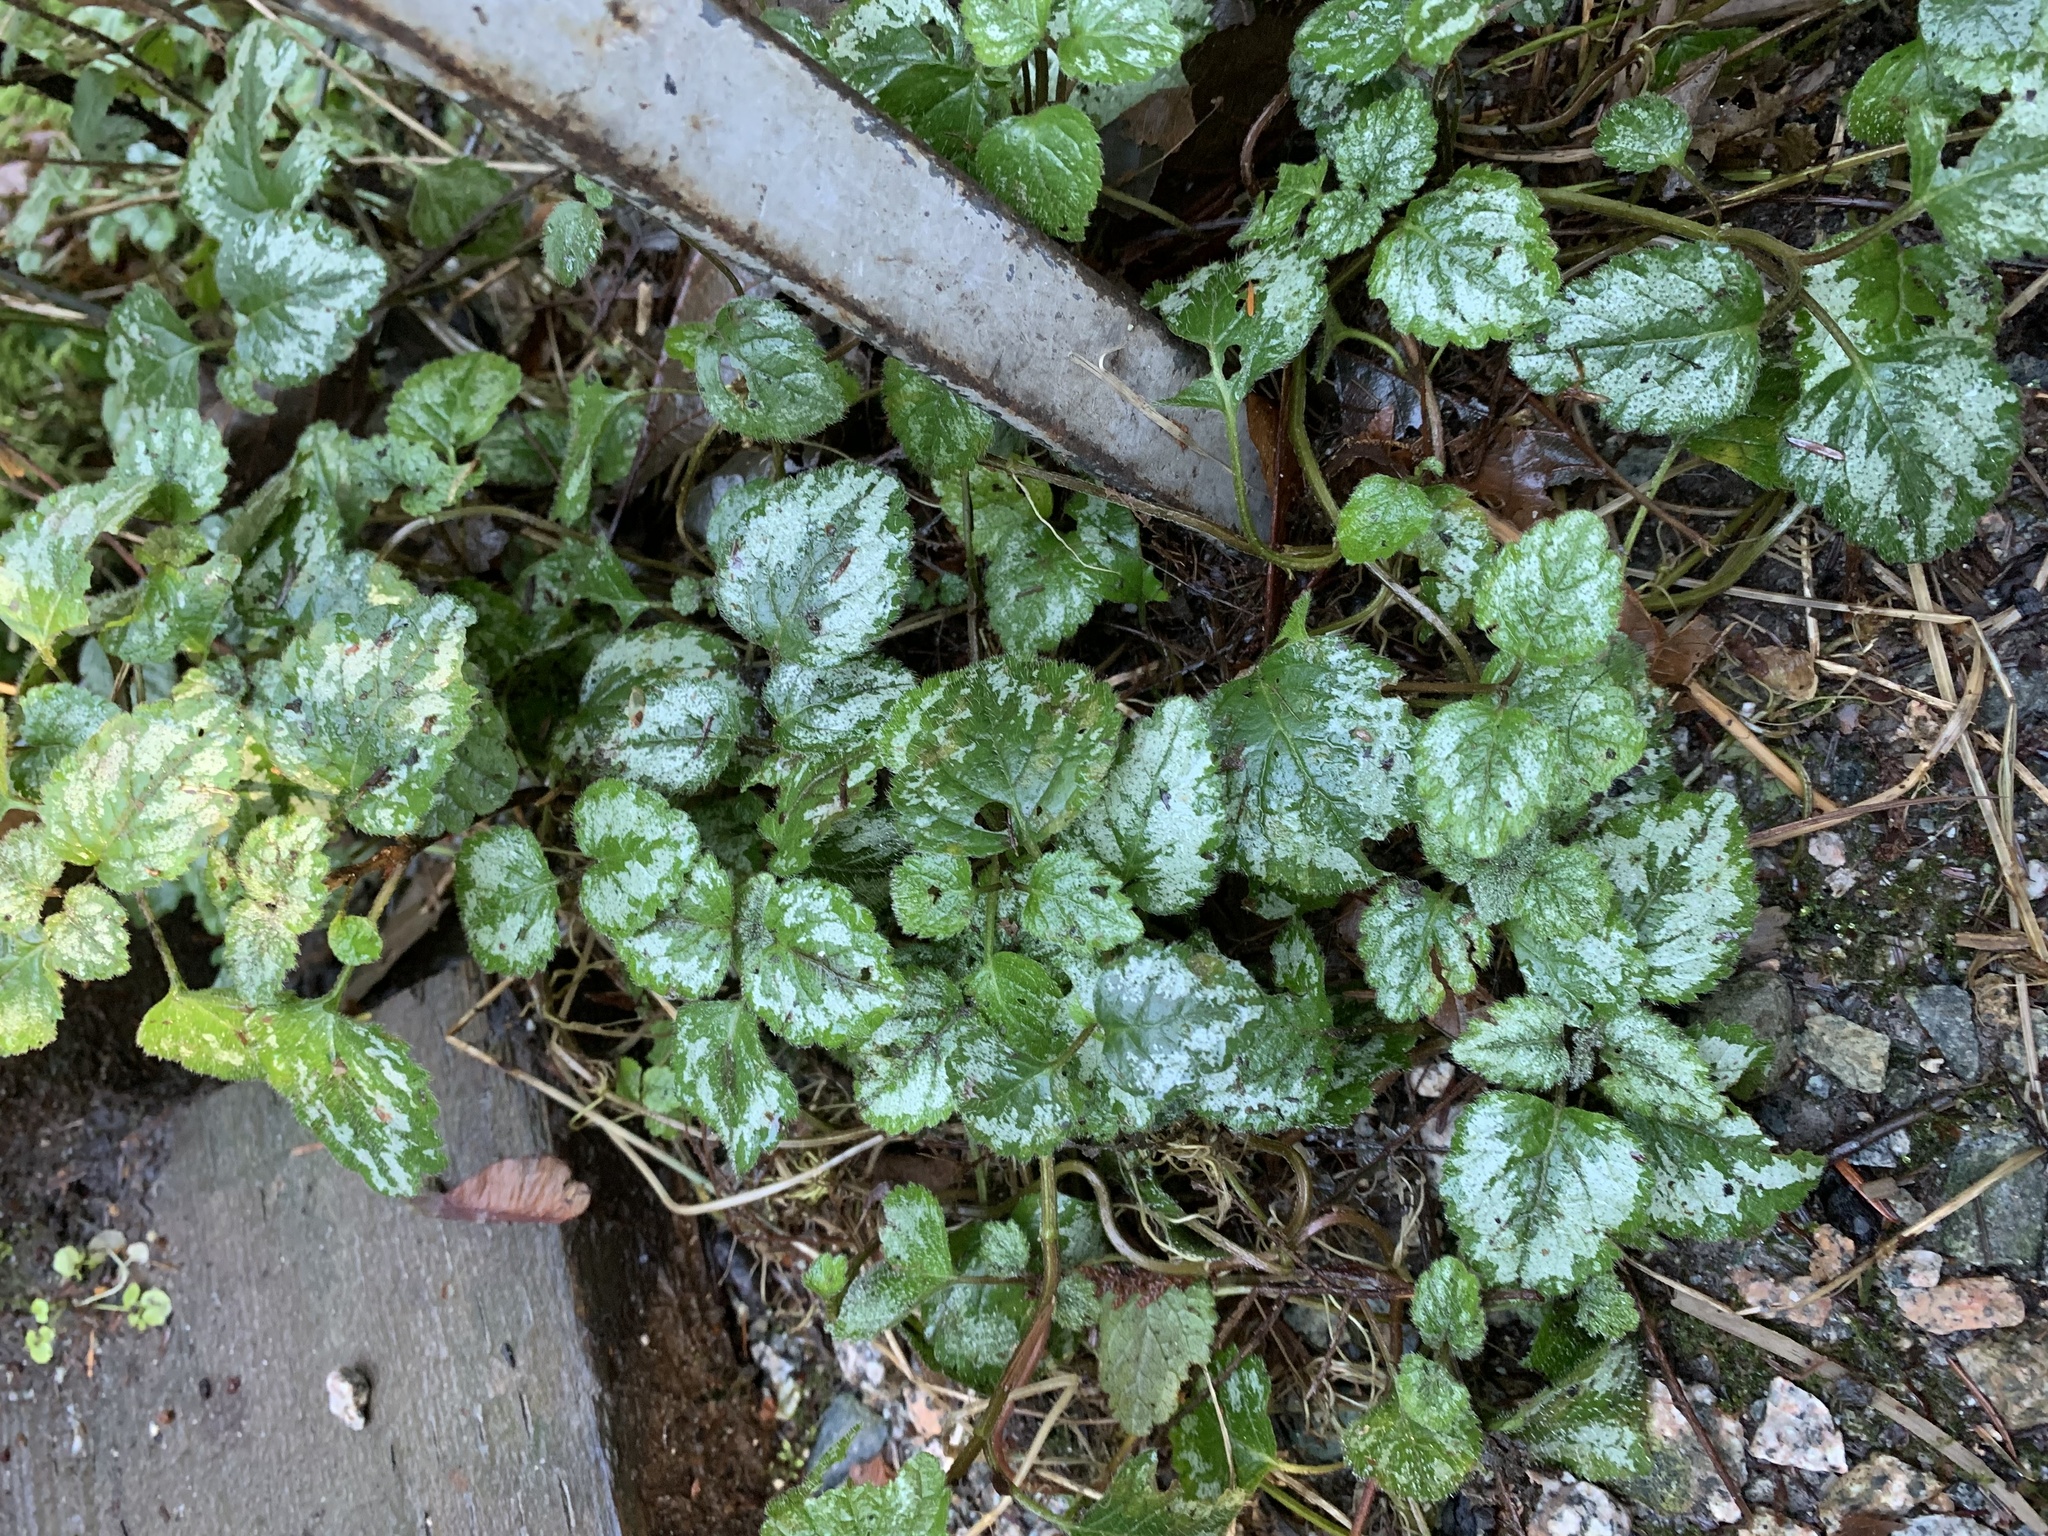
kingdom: Plantae
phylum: Tracheophyta
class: Magnoliopsida
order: Lamiales
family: Lamiaceae
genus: Lamium
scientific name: Lamium galeobdolon
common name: Yellow archangel
